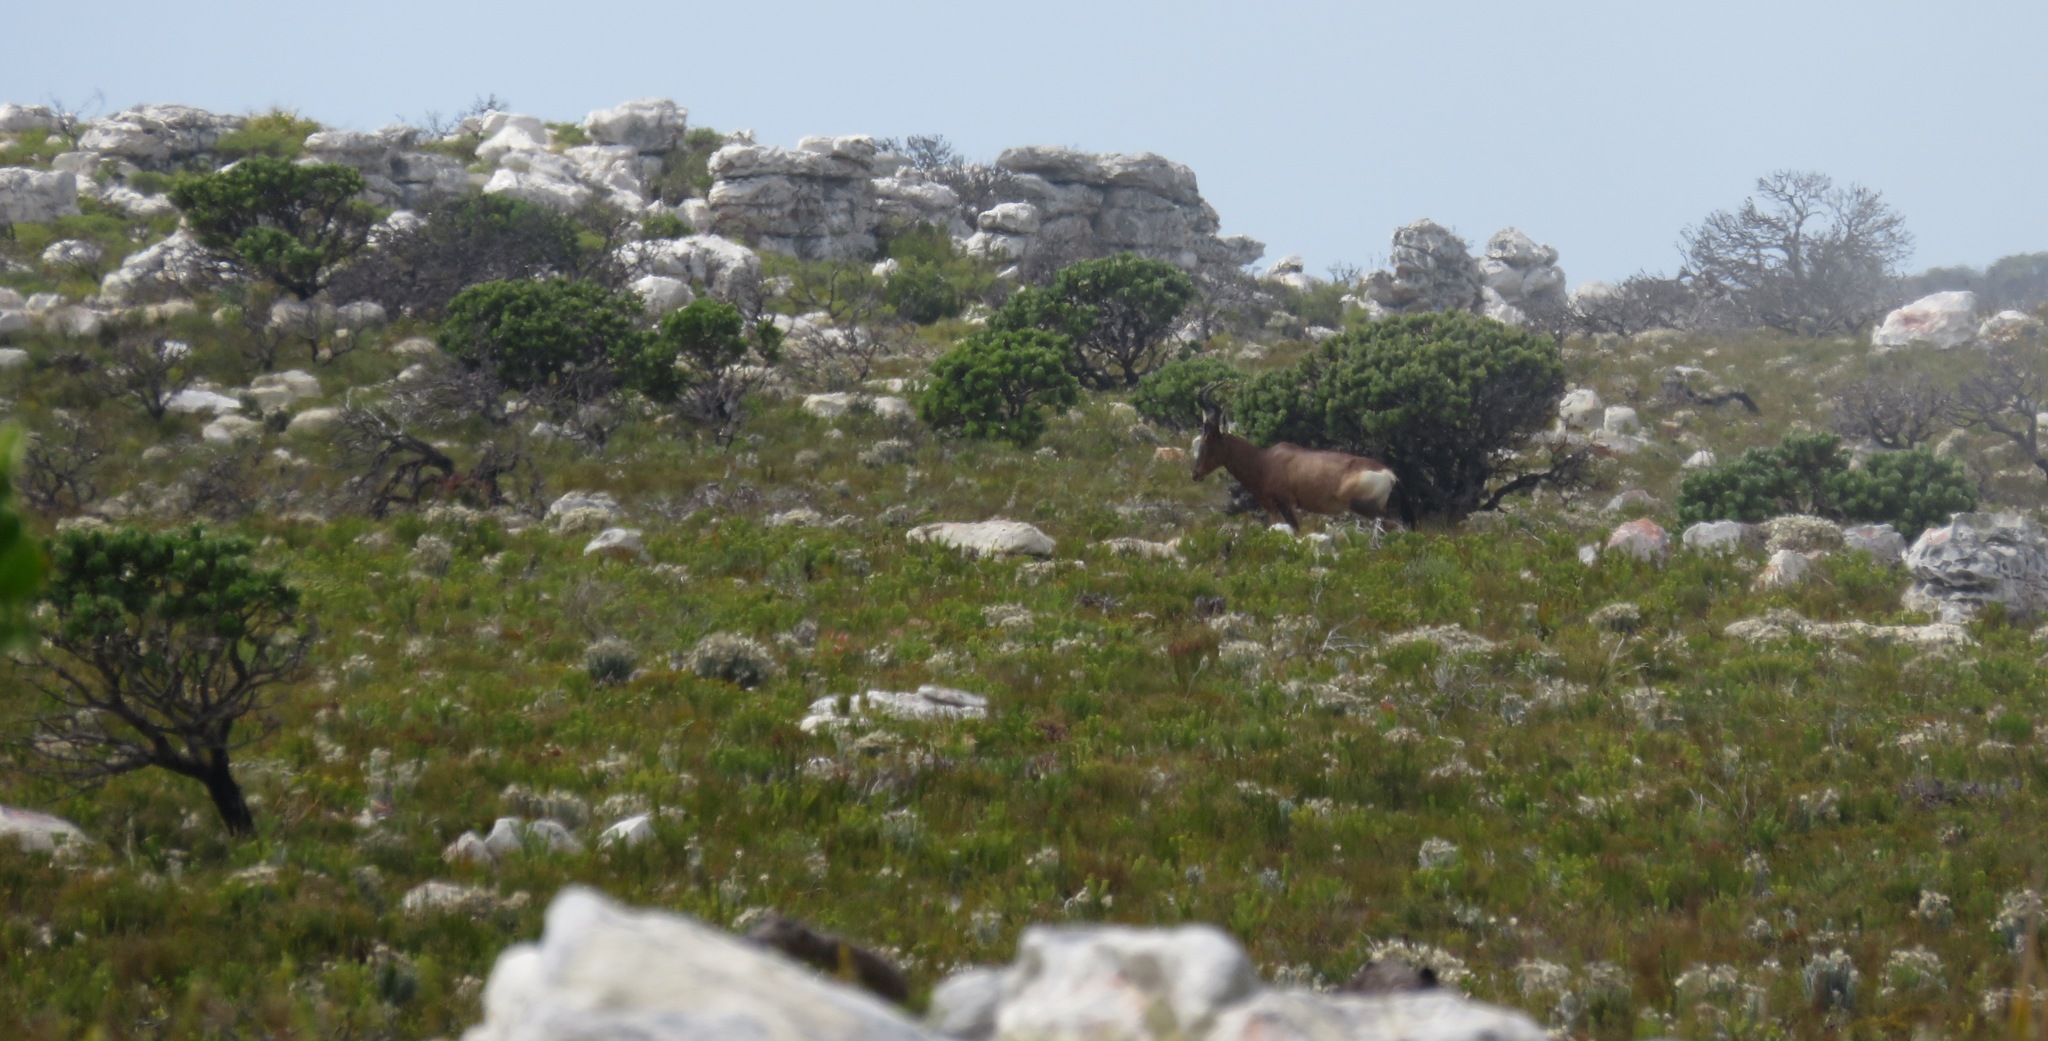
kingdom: Animalia
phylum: Chordata
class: Mammalia
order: Artiodactyla
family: Bovidae
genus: Alcelaphus
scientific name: Alcelaphus caama
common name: Red hartebeest
